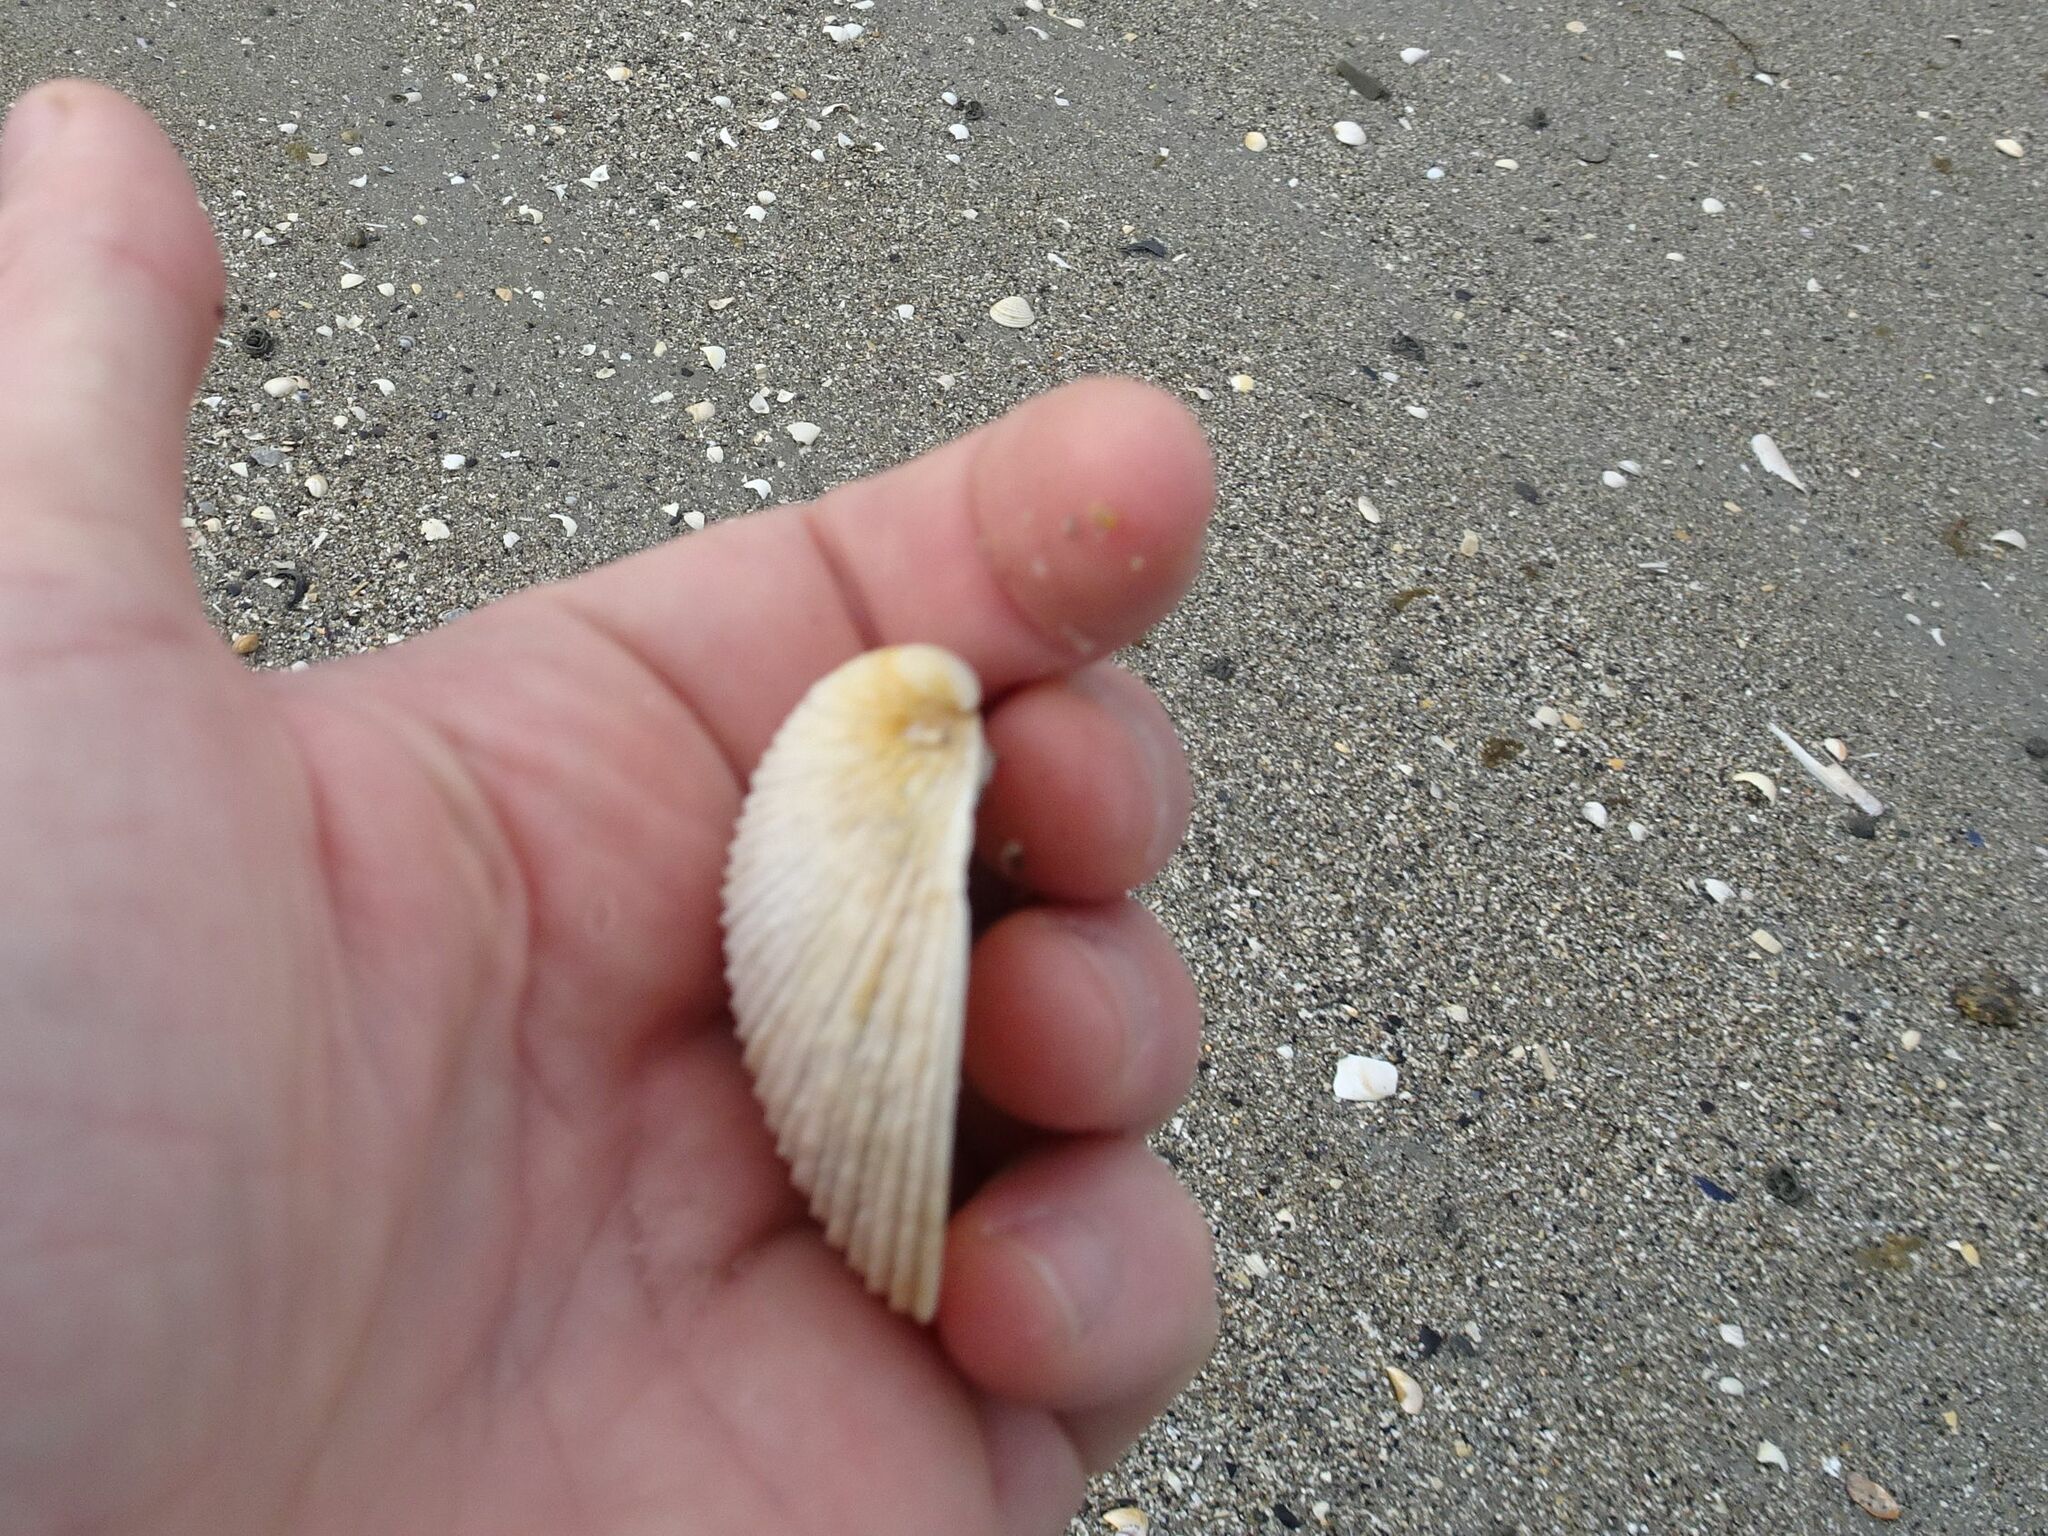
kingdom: Animalia
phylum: Mollusca
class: Bivalvia
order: Venerida
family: Veneridae
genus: Venus
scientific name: Venus verrucosa
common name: Warty venus
